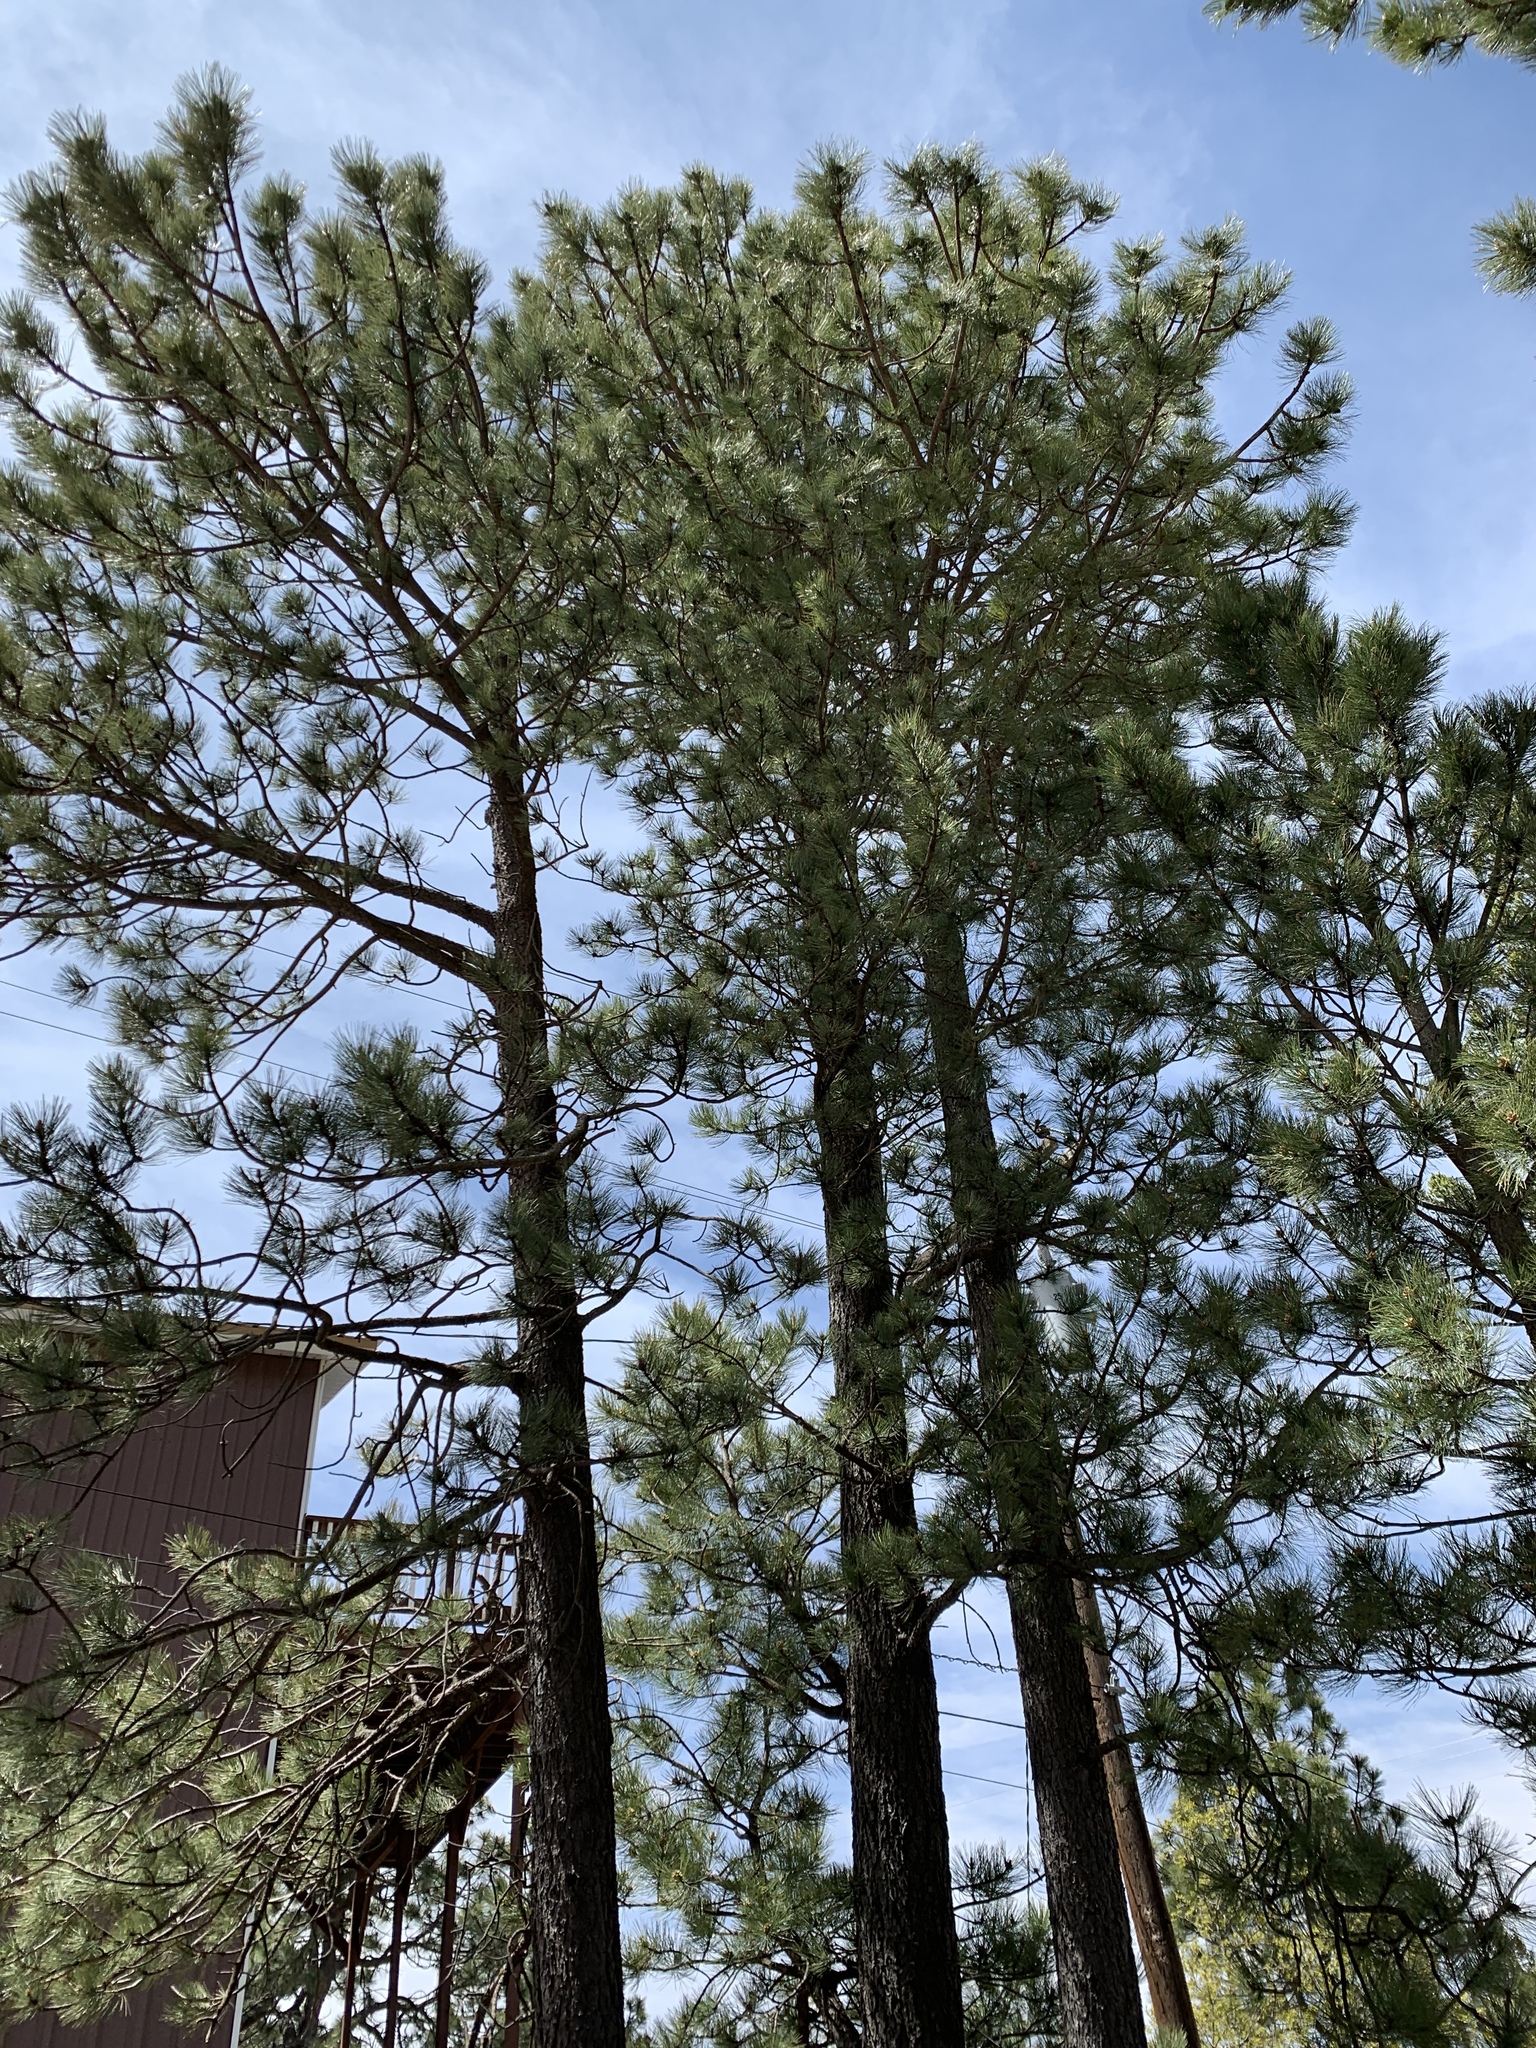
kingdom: Plantae
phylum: Tracheophyta
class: Pinopsida
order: Pinales
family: Pinaceae
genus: Pinus
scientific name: Pinus ponderosa
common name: Western yellow-pine
